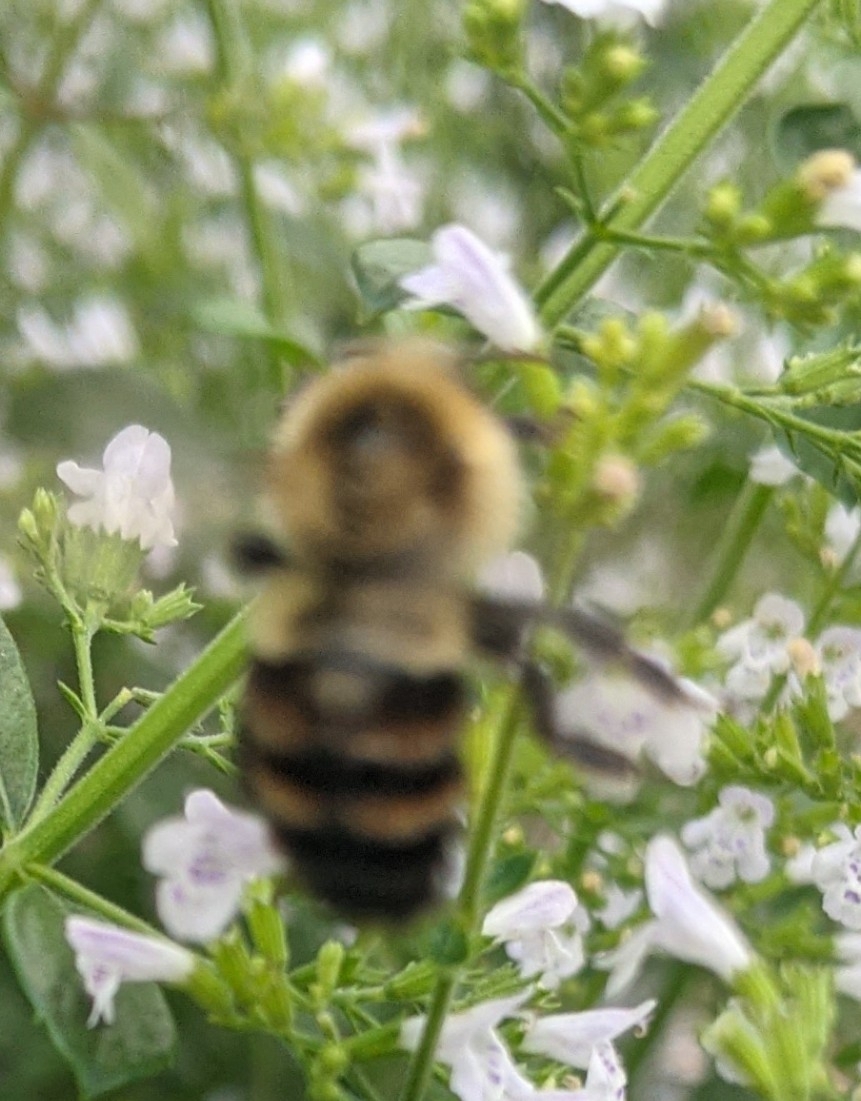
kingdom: Animalia
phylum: Arthropoda
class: Insecta
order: Hymenoptera
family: Apidae
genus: Bombus
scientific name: Bombus impatiens
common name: Common eastern bumble bee
